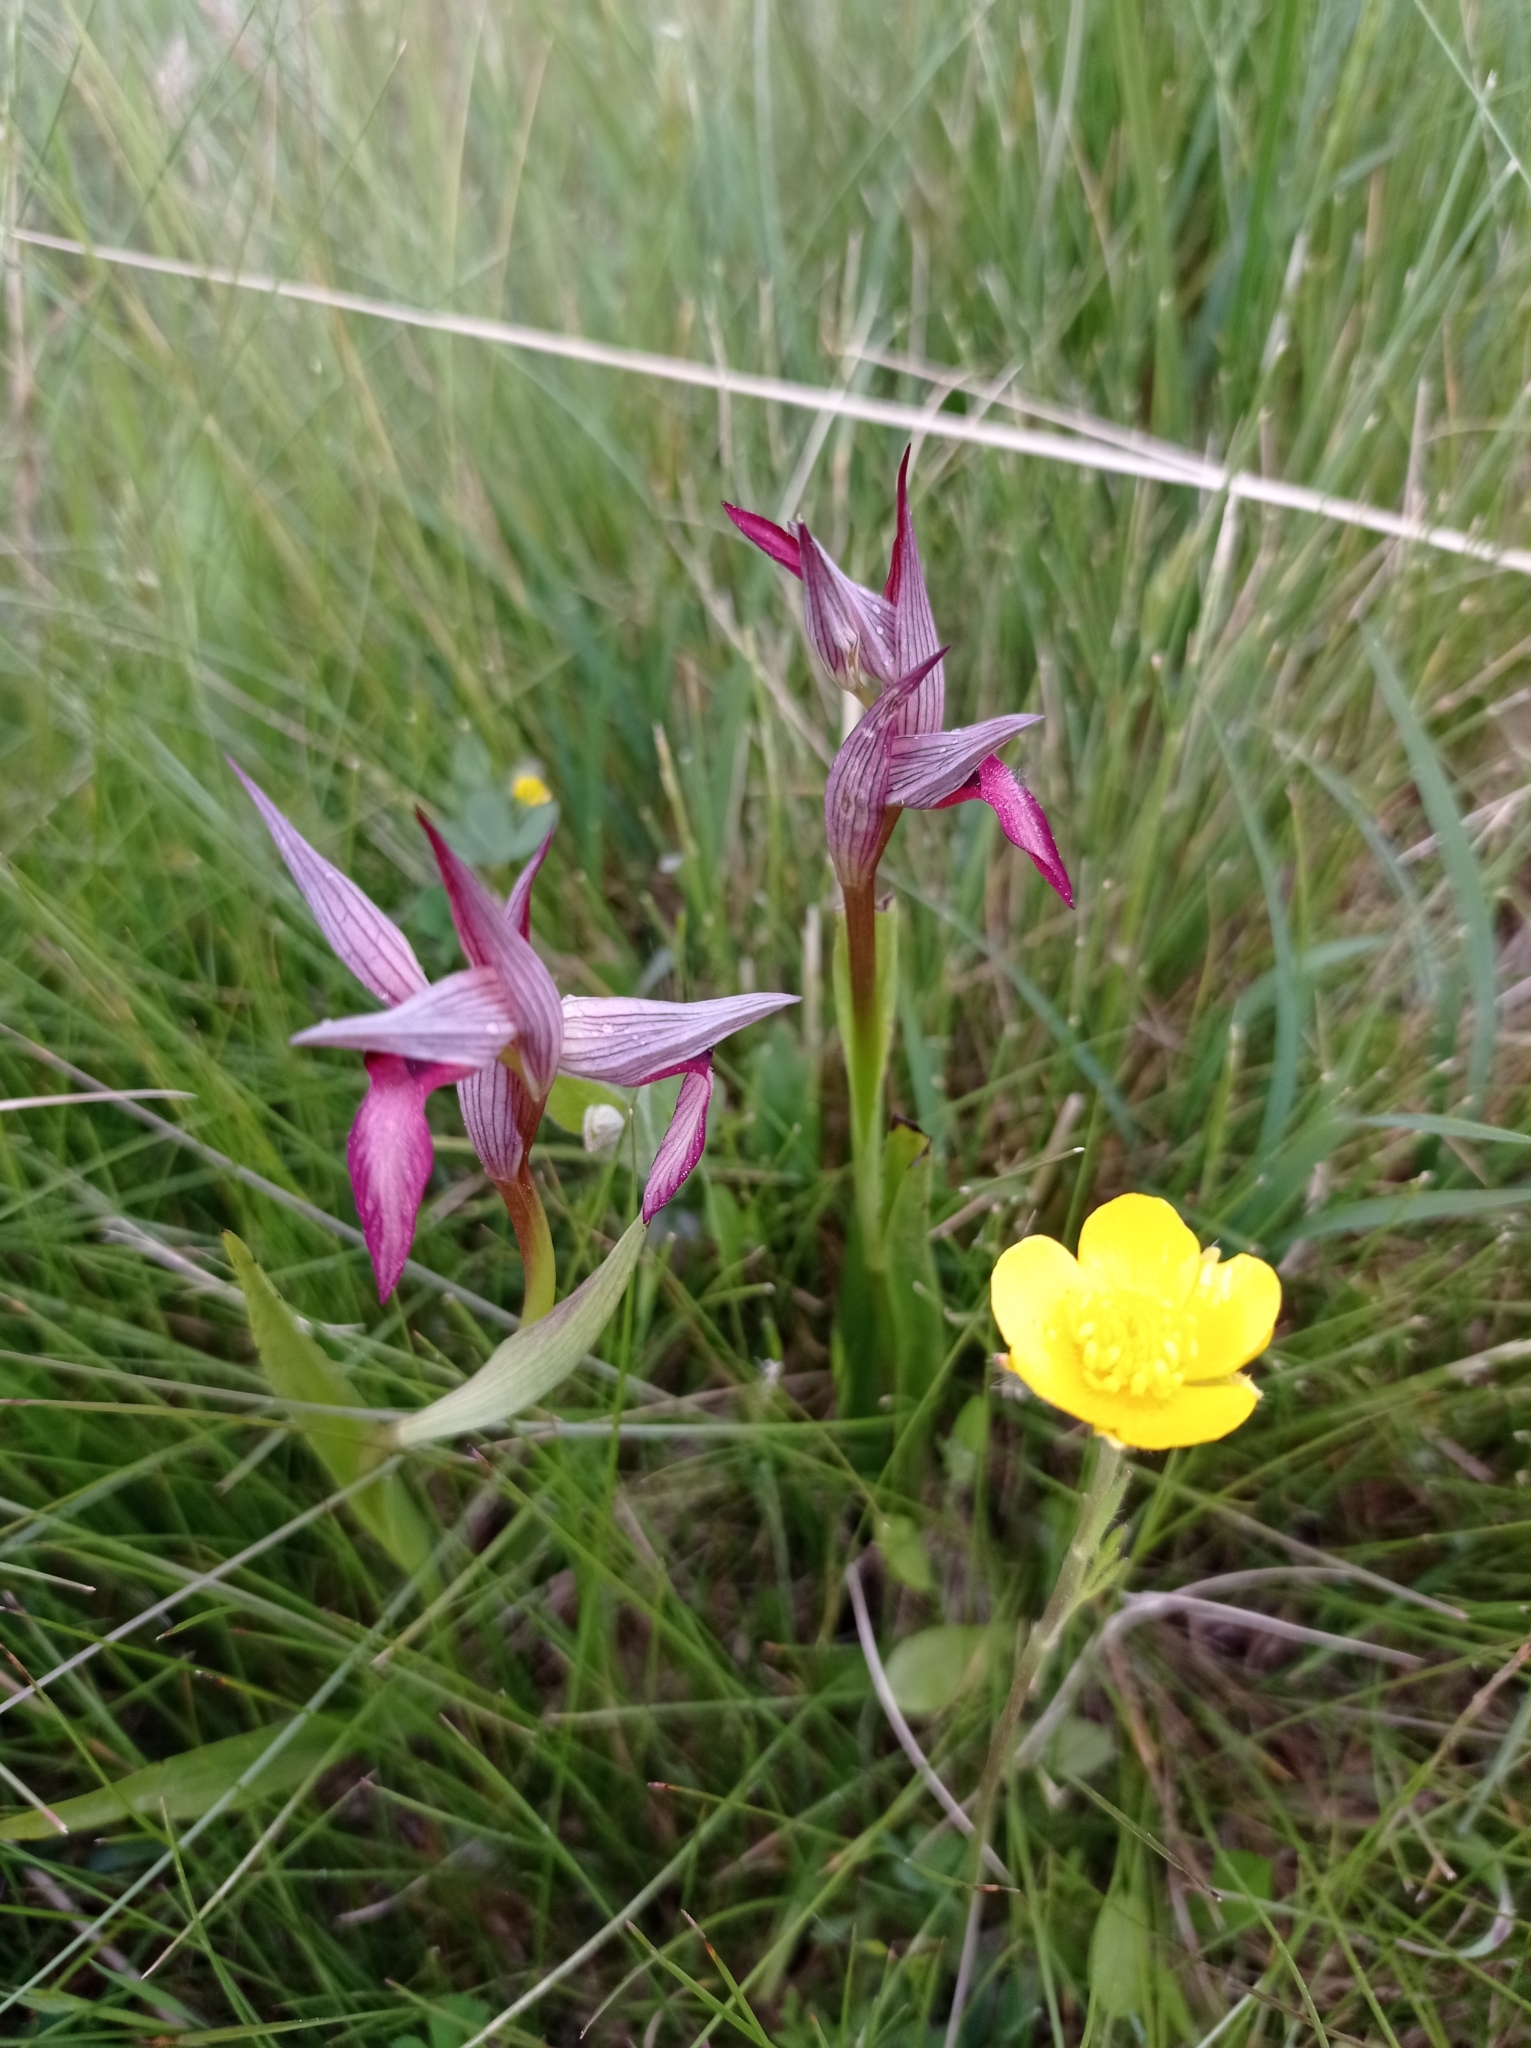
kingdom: Plantae
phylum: Tracheophyta
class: Liliopsida
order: Asparagales
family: Orchidaceae
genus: Serapias
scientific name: Serapias lingua
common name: Tongue-orchid
